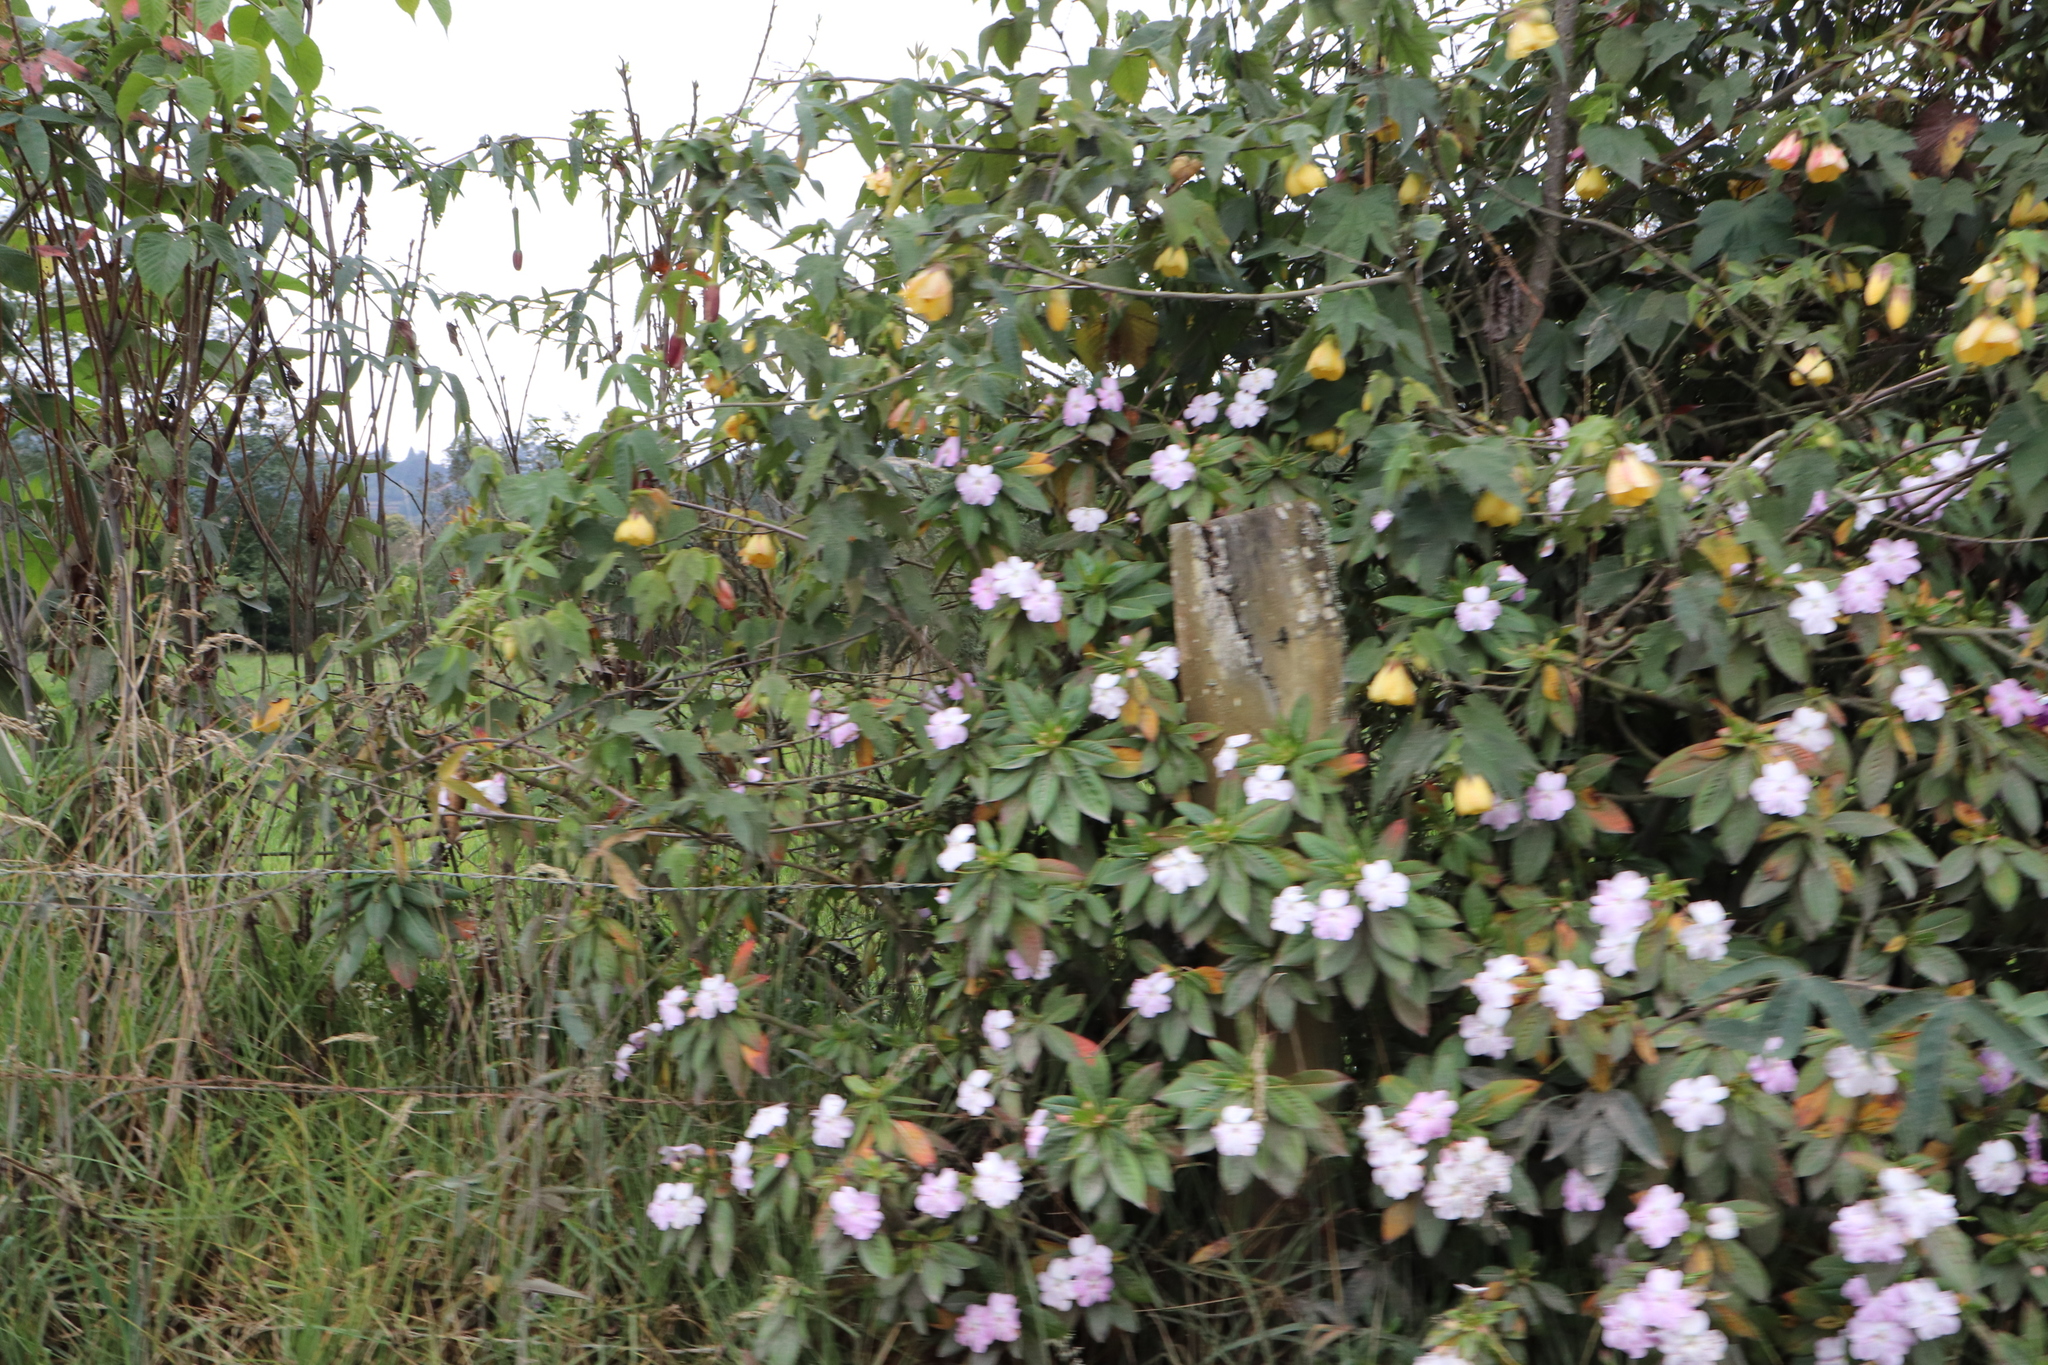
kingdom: Plantae
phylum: Tracheophyta
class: Magnoliopsida
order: Ericales
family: Balsaminaceae
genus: Impatiens
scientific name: Impatiens sodenii
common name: Oliver's touch-me-not
